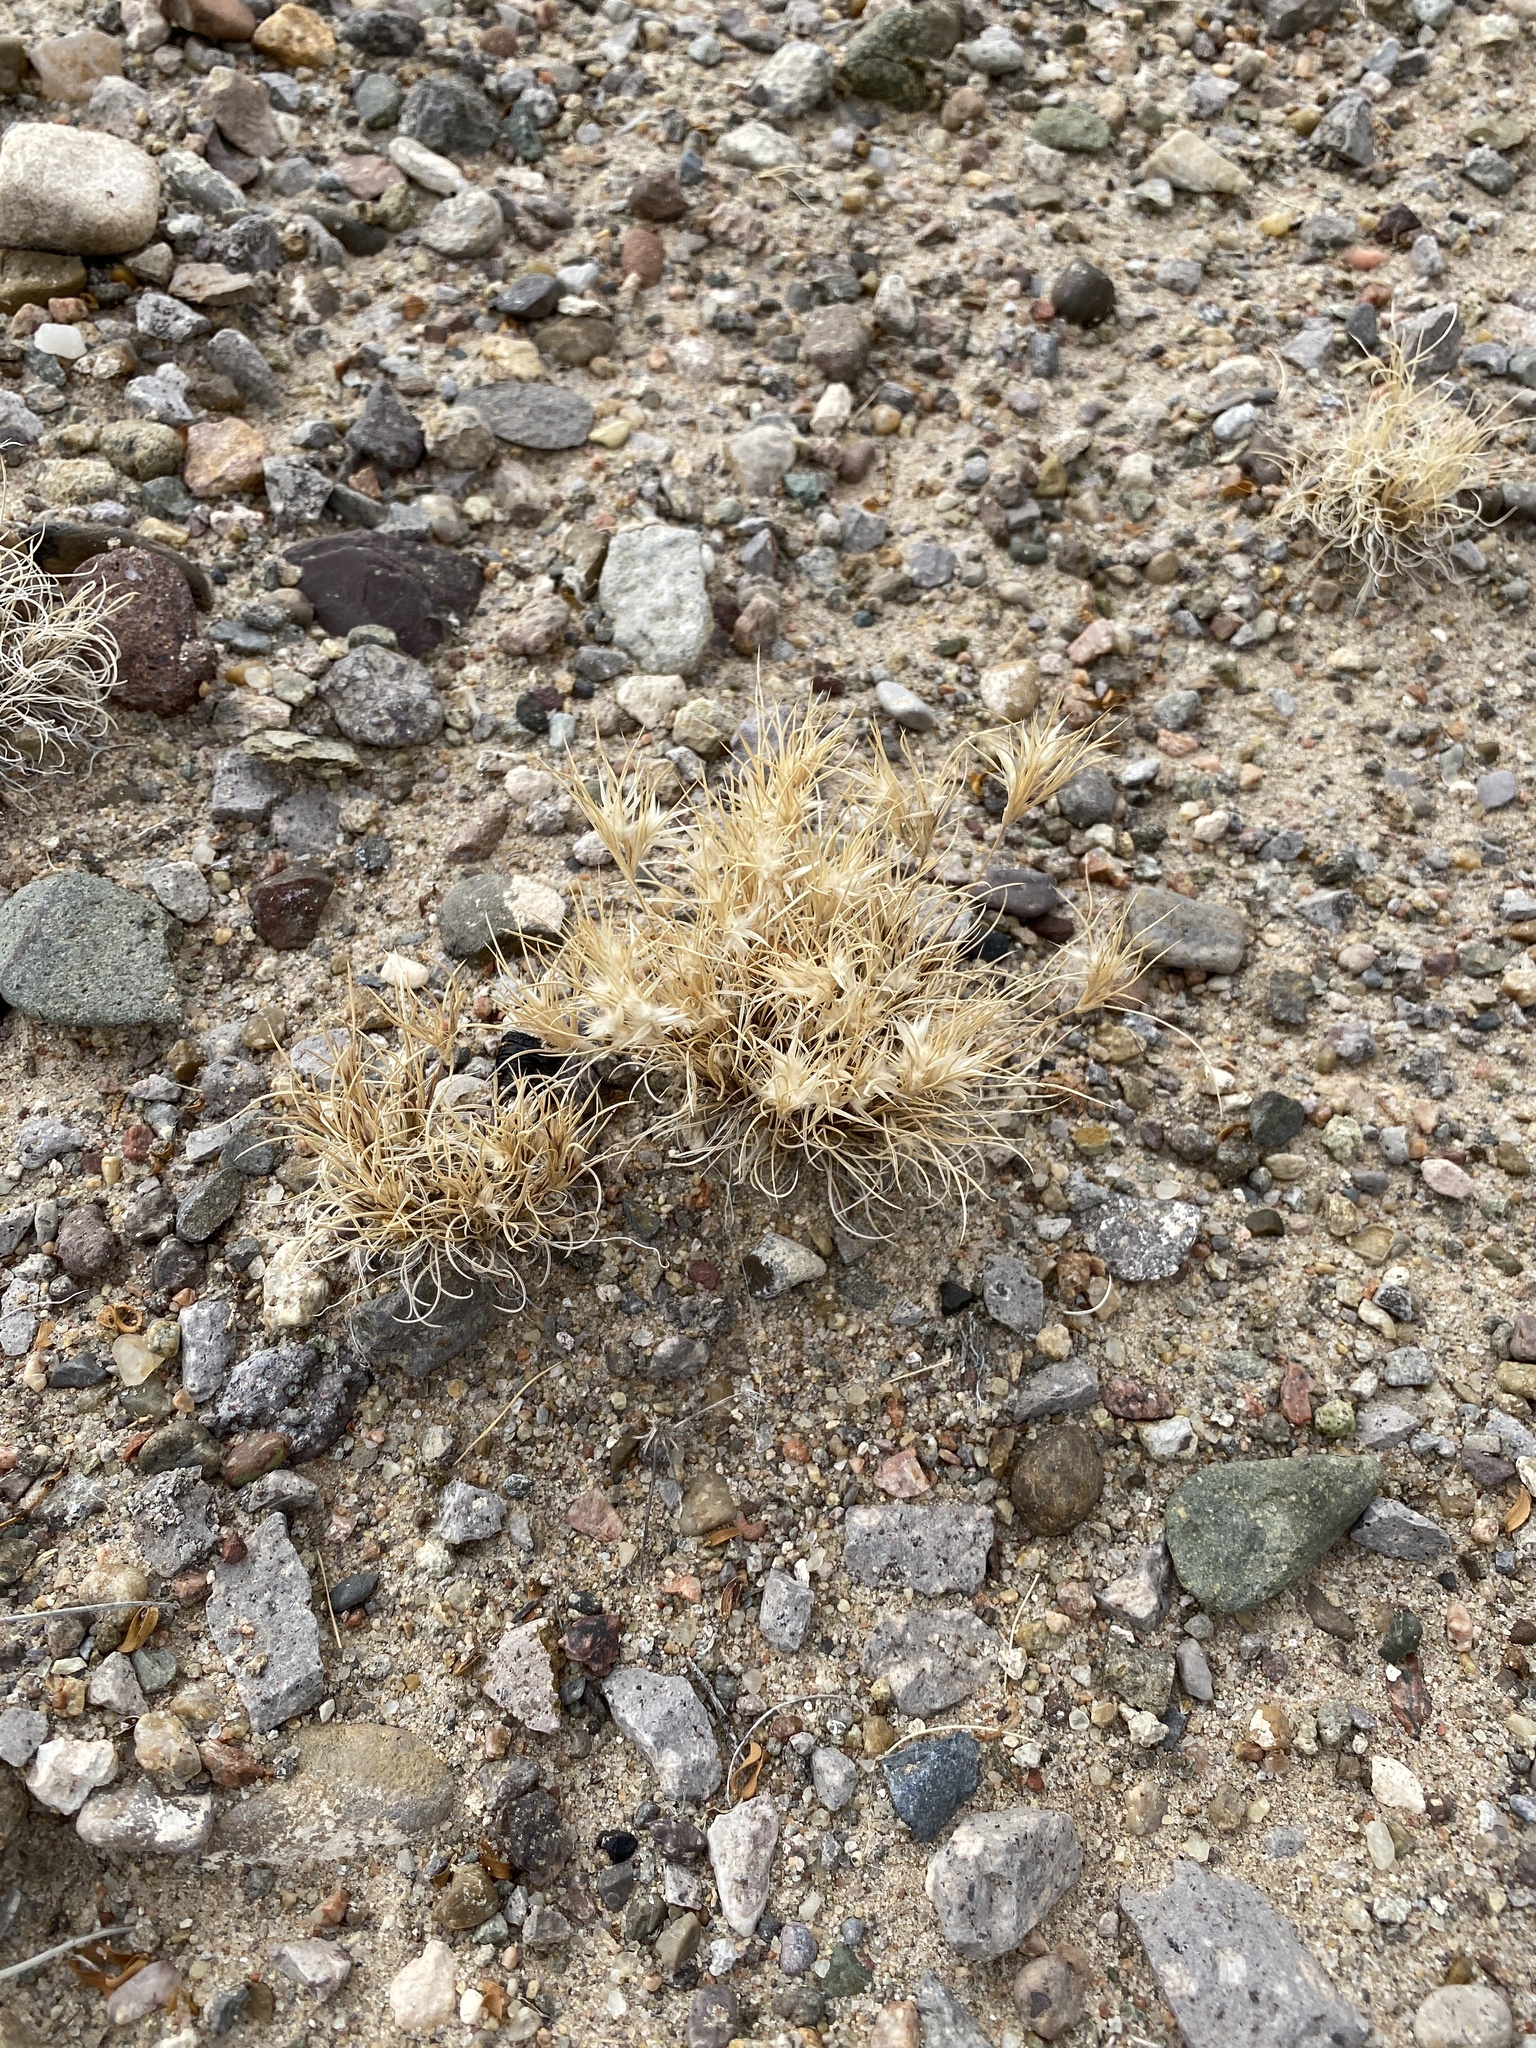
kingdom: Plantae
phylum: Tracheophyta
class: Liliopsida
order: Poales
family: Poaceae
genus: Dasyochloa
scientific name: Dasyochloa pulchella
